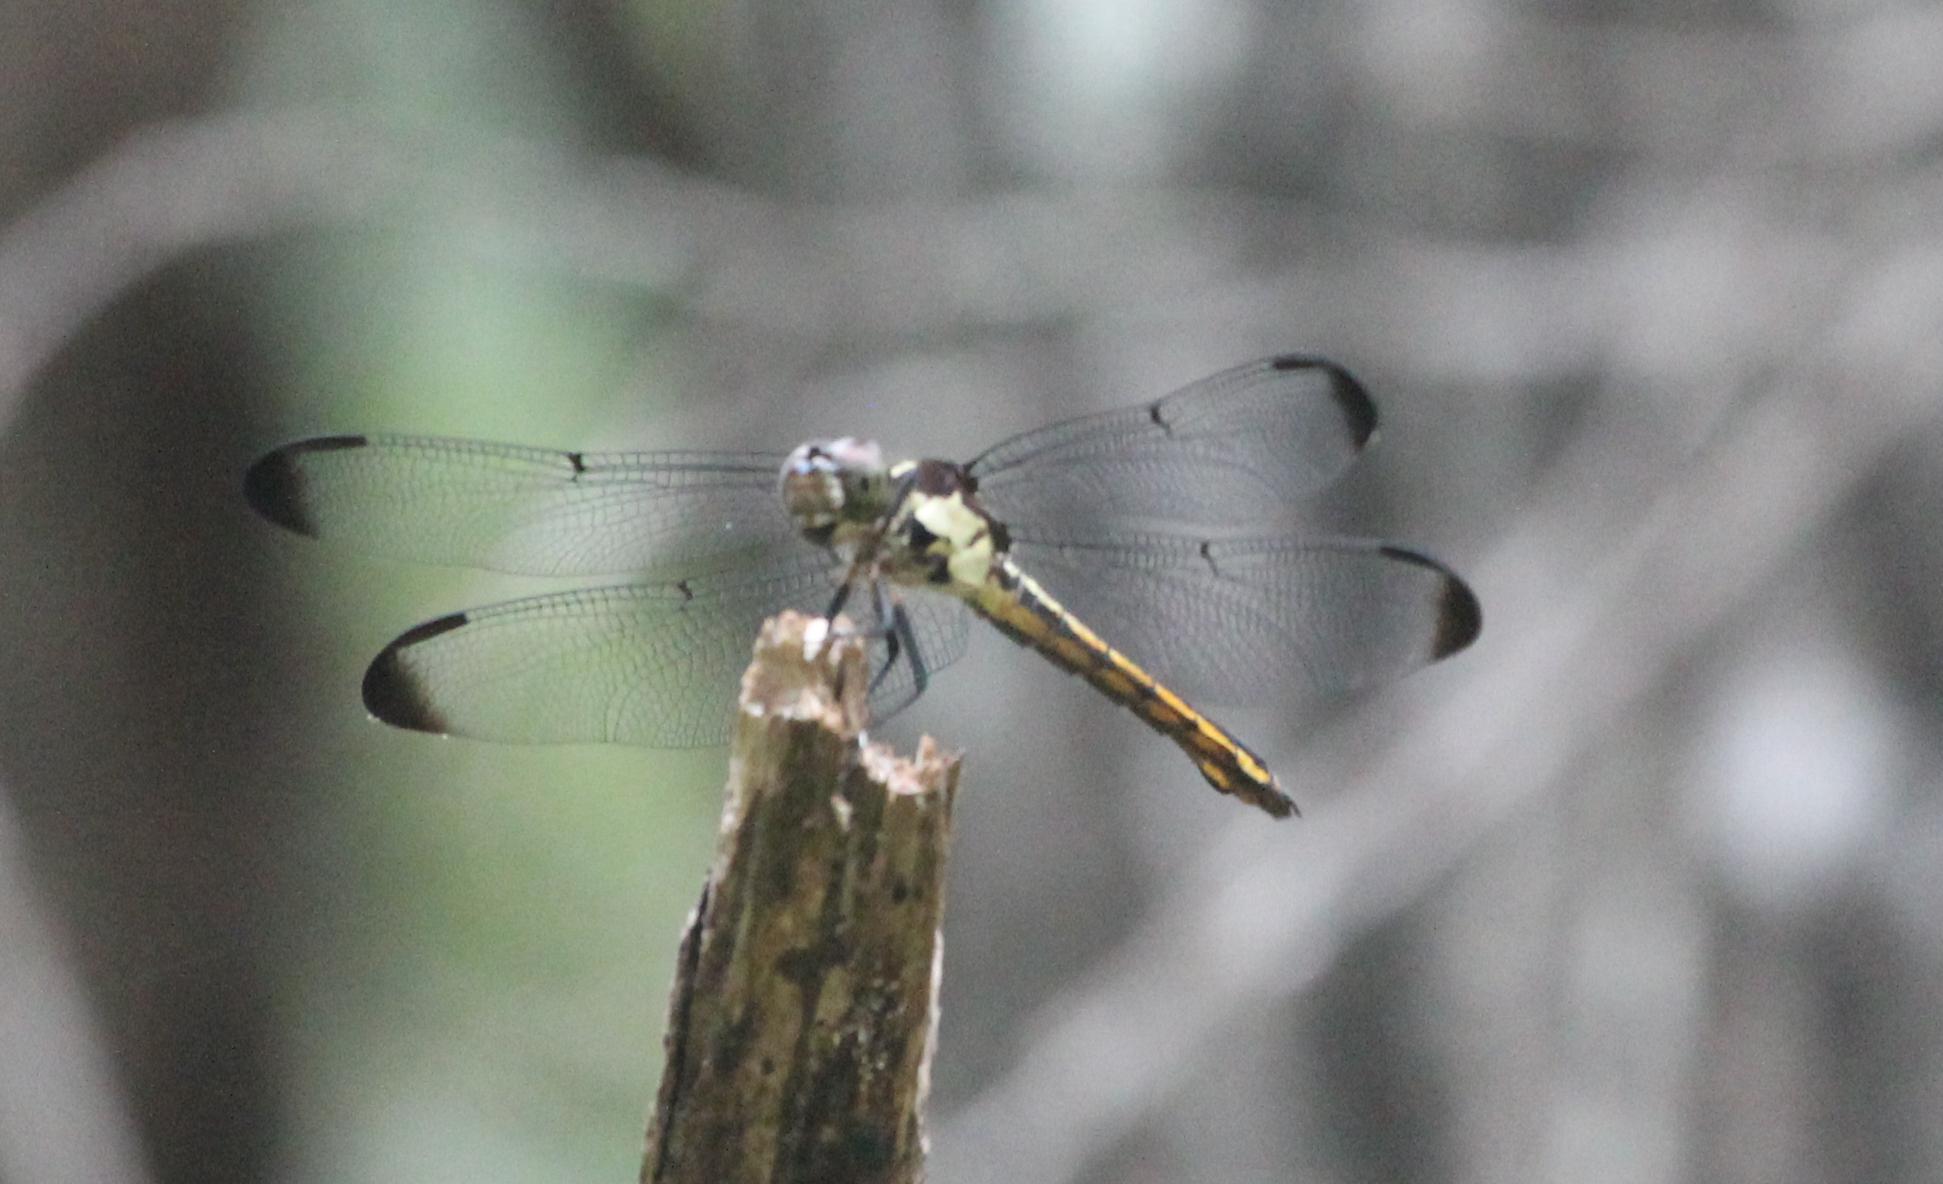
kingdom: Animalia
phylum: Arthropoda
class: Insecta
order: Odonata
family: Libellulidae
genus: Libellula
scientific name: Libellula incesta
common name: Slaty skimmer
